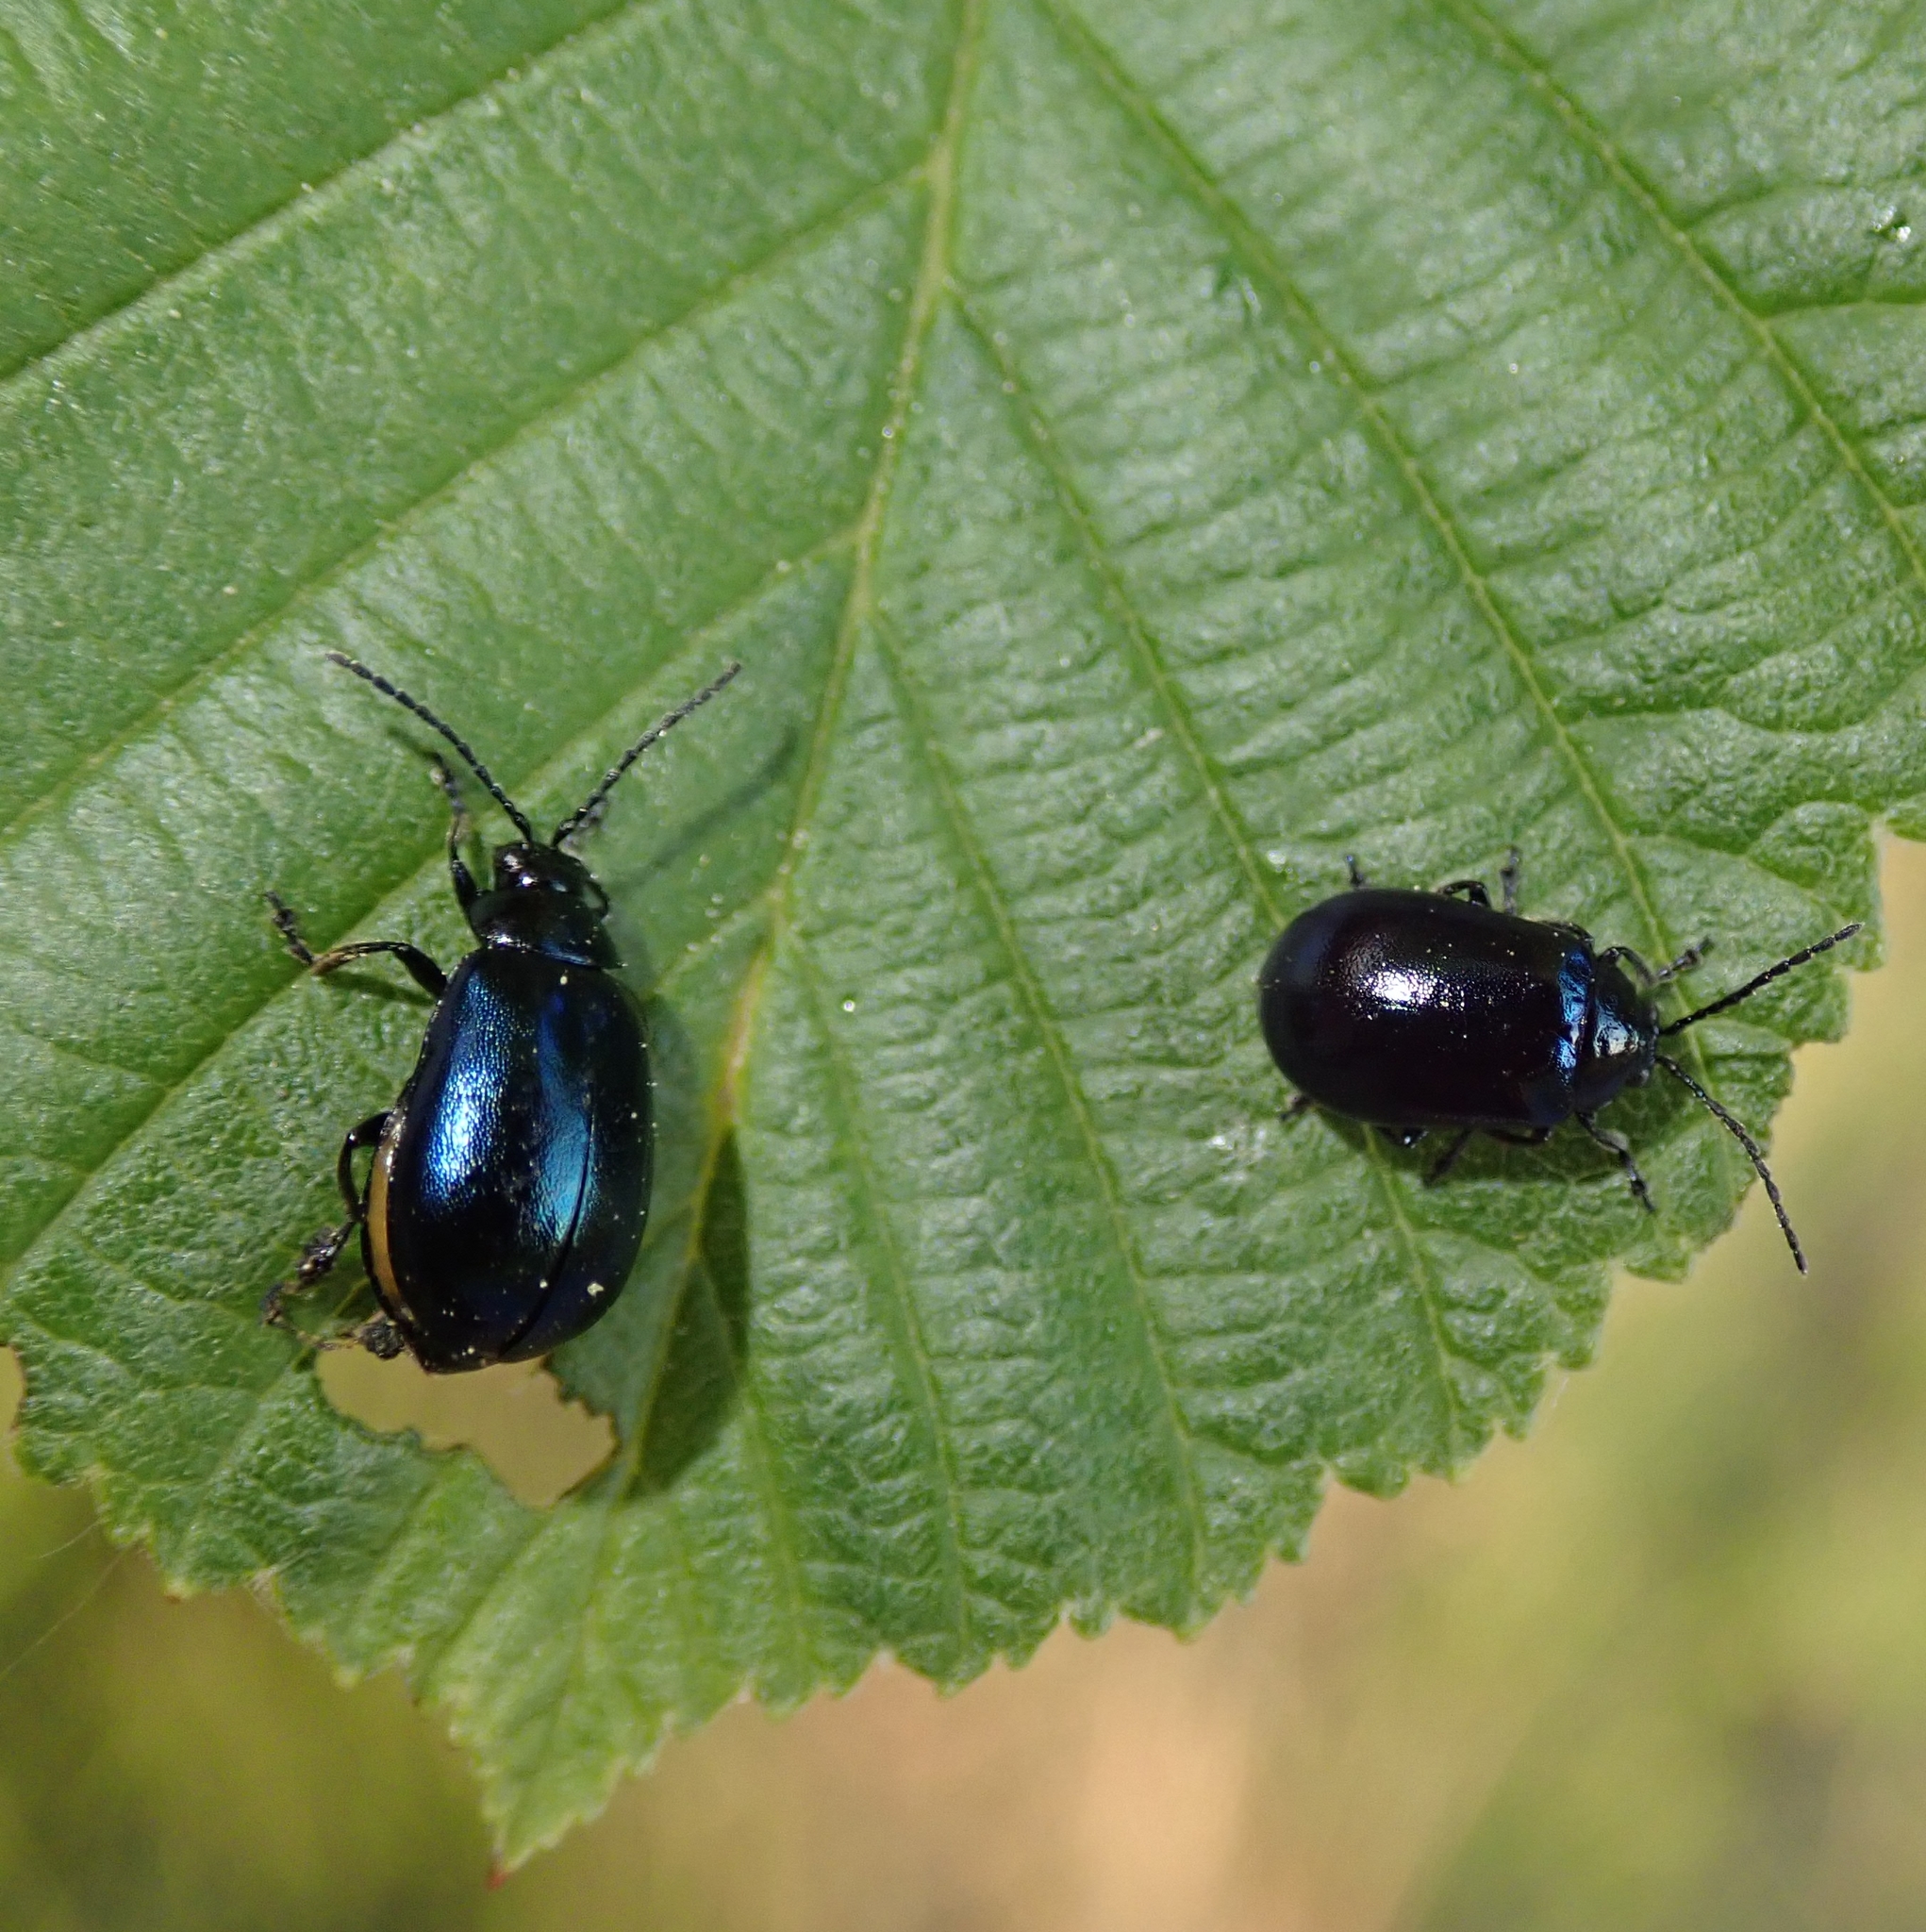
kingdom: Animalia
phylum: Arthropoda
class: Insecta
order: Coleoptera
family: Chrysomelidae
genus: Agelastica
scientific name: Agelastica alni
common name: Alder leaf beetle
